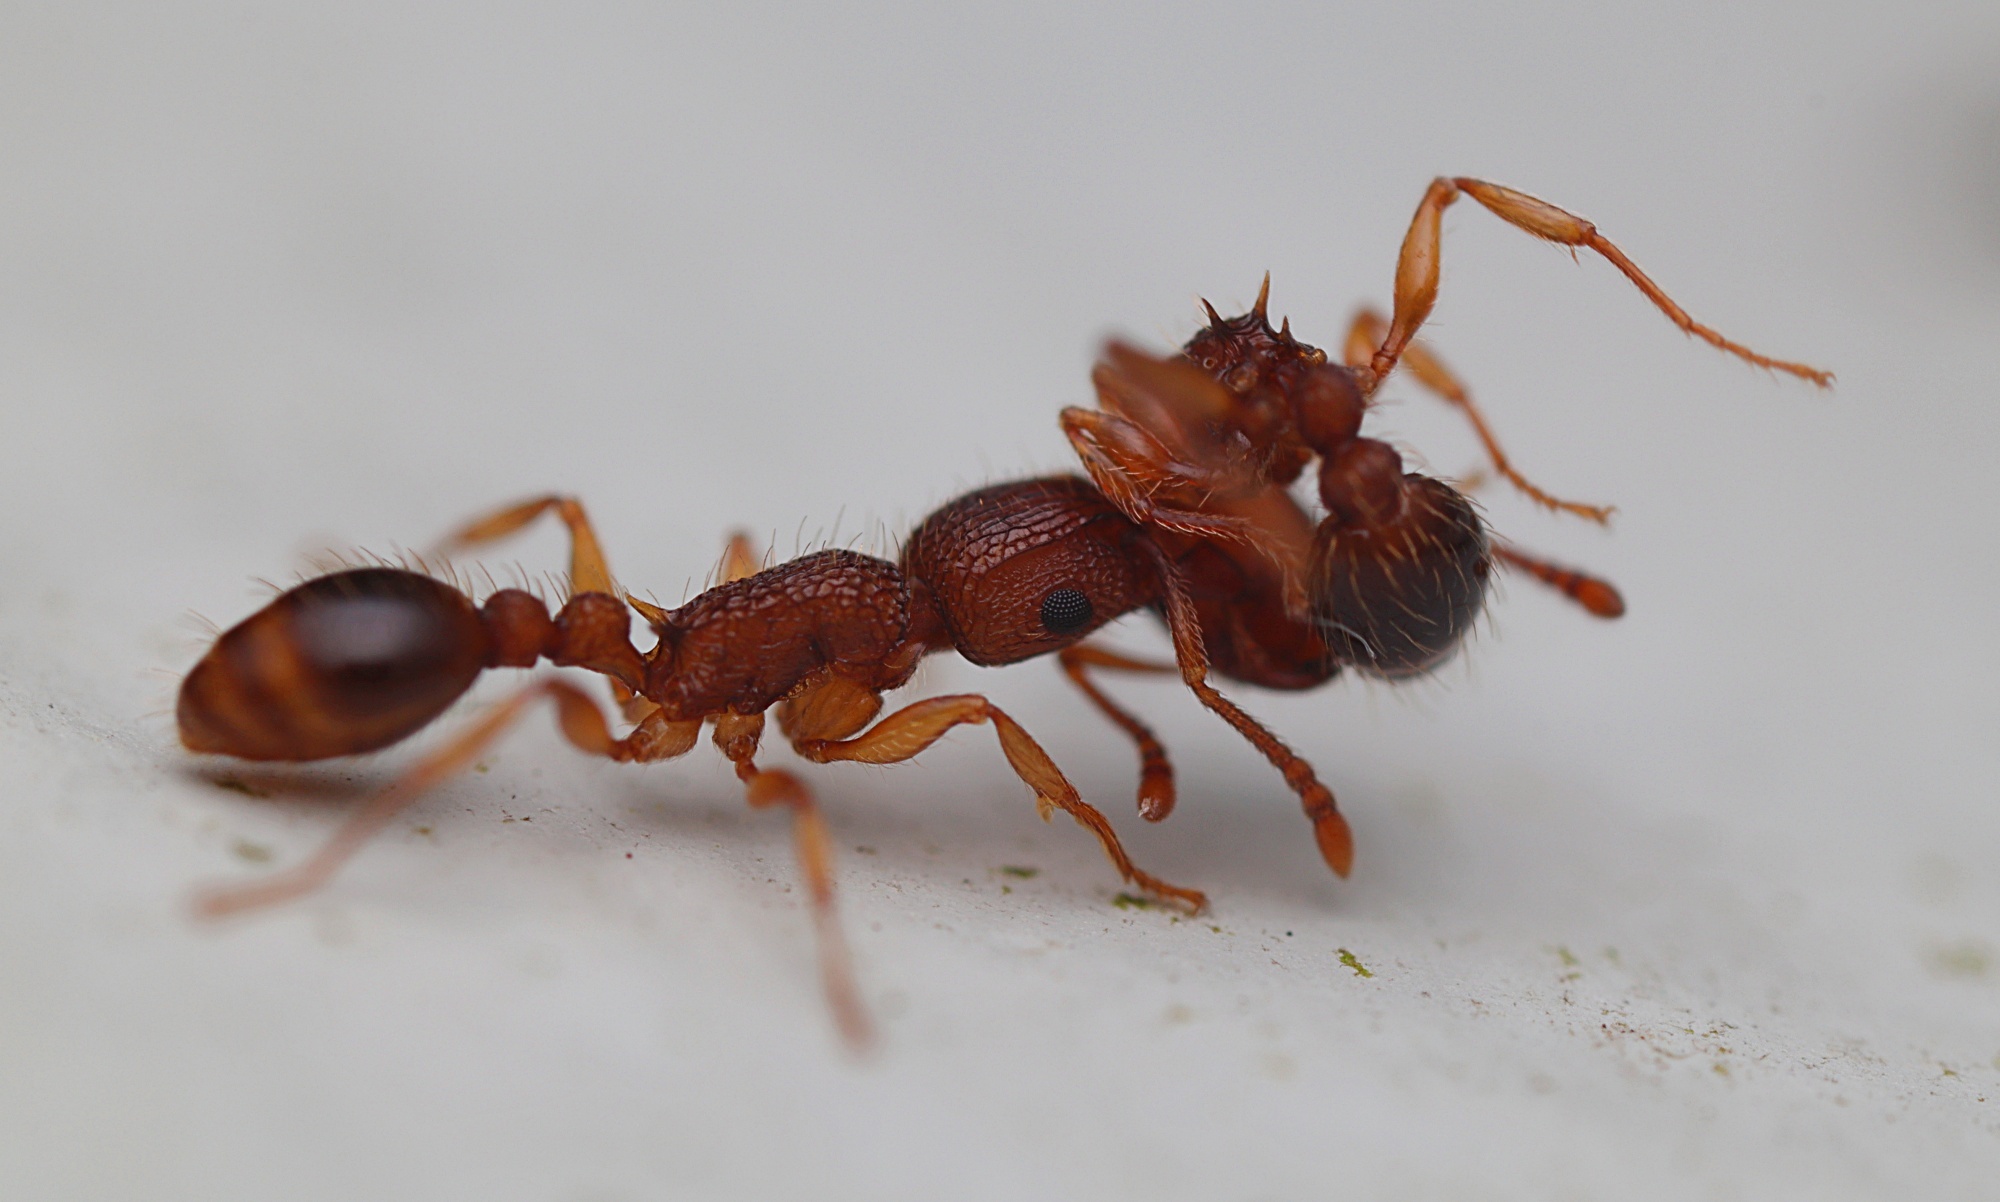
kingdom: Animalia
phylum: Arthropoda
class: Insecta
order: Hymenoptera
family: Formicidae
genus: Tetramorium
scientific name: Tetramorium bicarinatum
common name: Guinea ant
